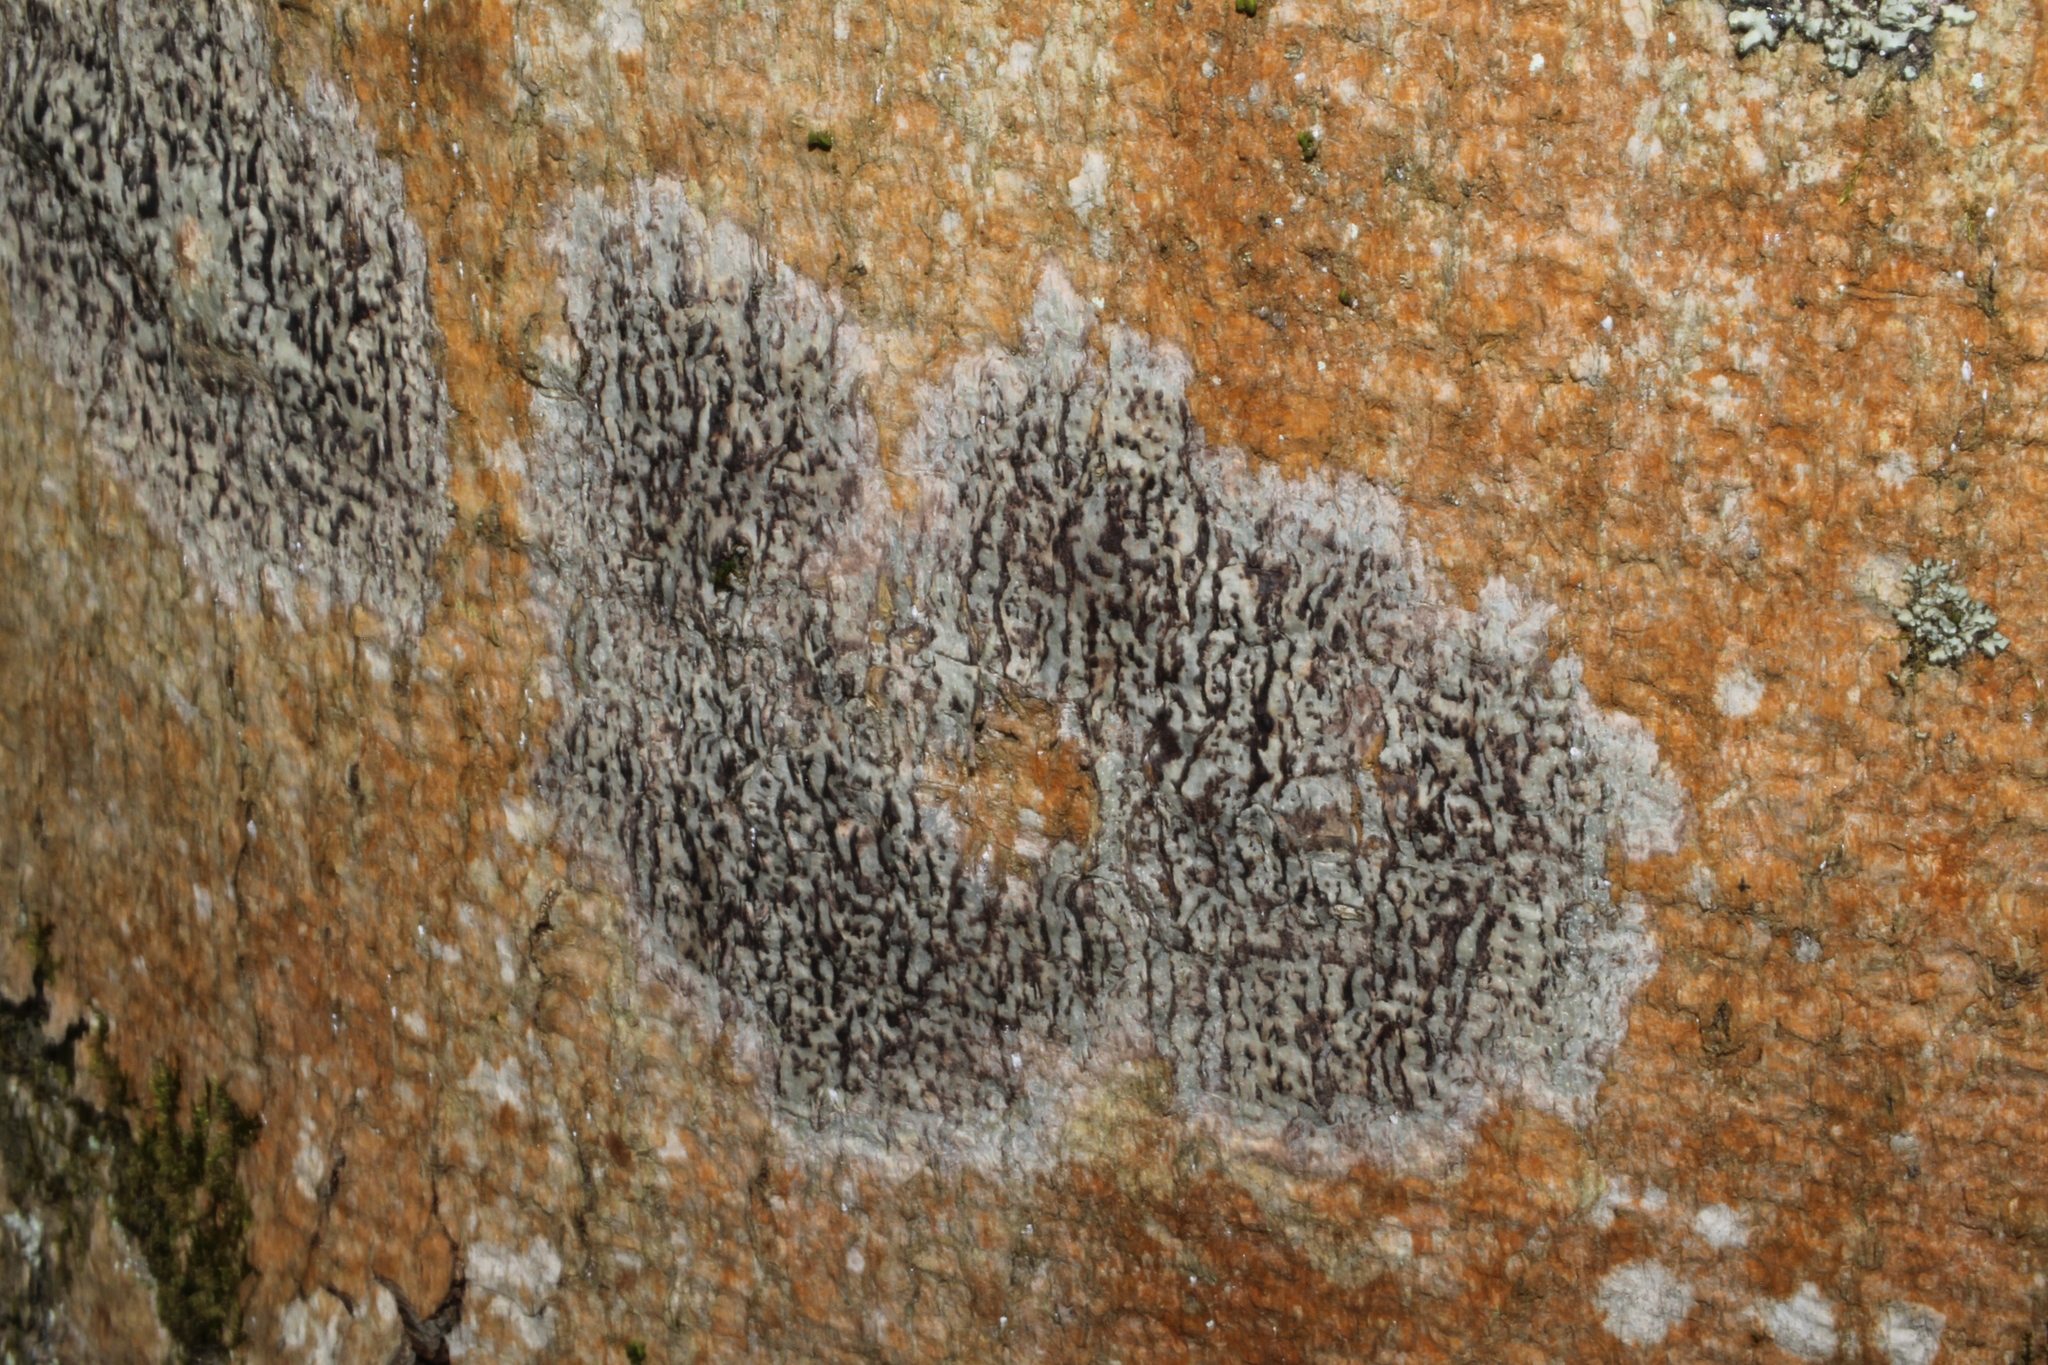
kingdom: Fungi
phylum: Ascomycota
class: Dothideomycetes
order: Trypetheliales
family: Trypetheliaceae
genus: Viridothelium
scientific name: Viridothelium virens
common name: Speckled blister lichen
